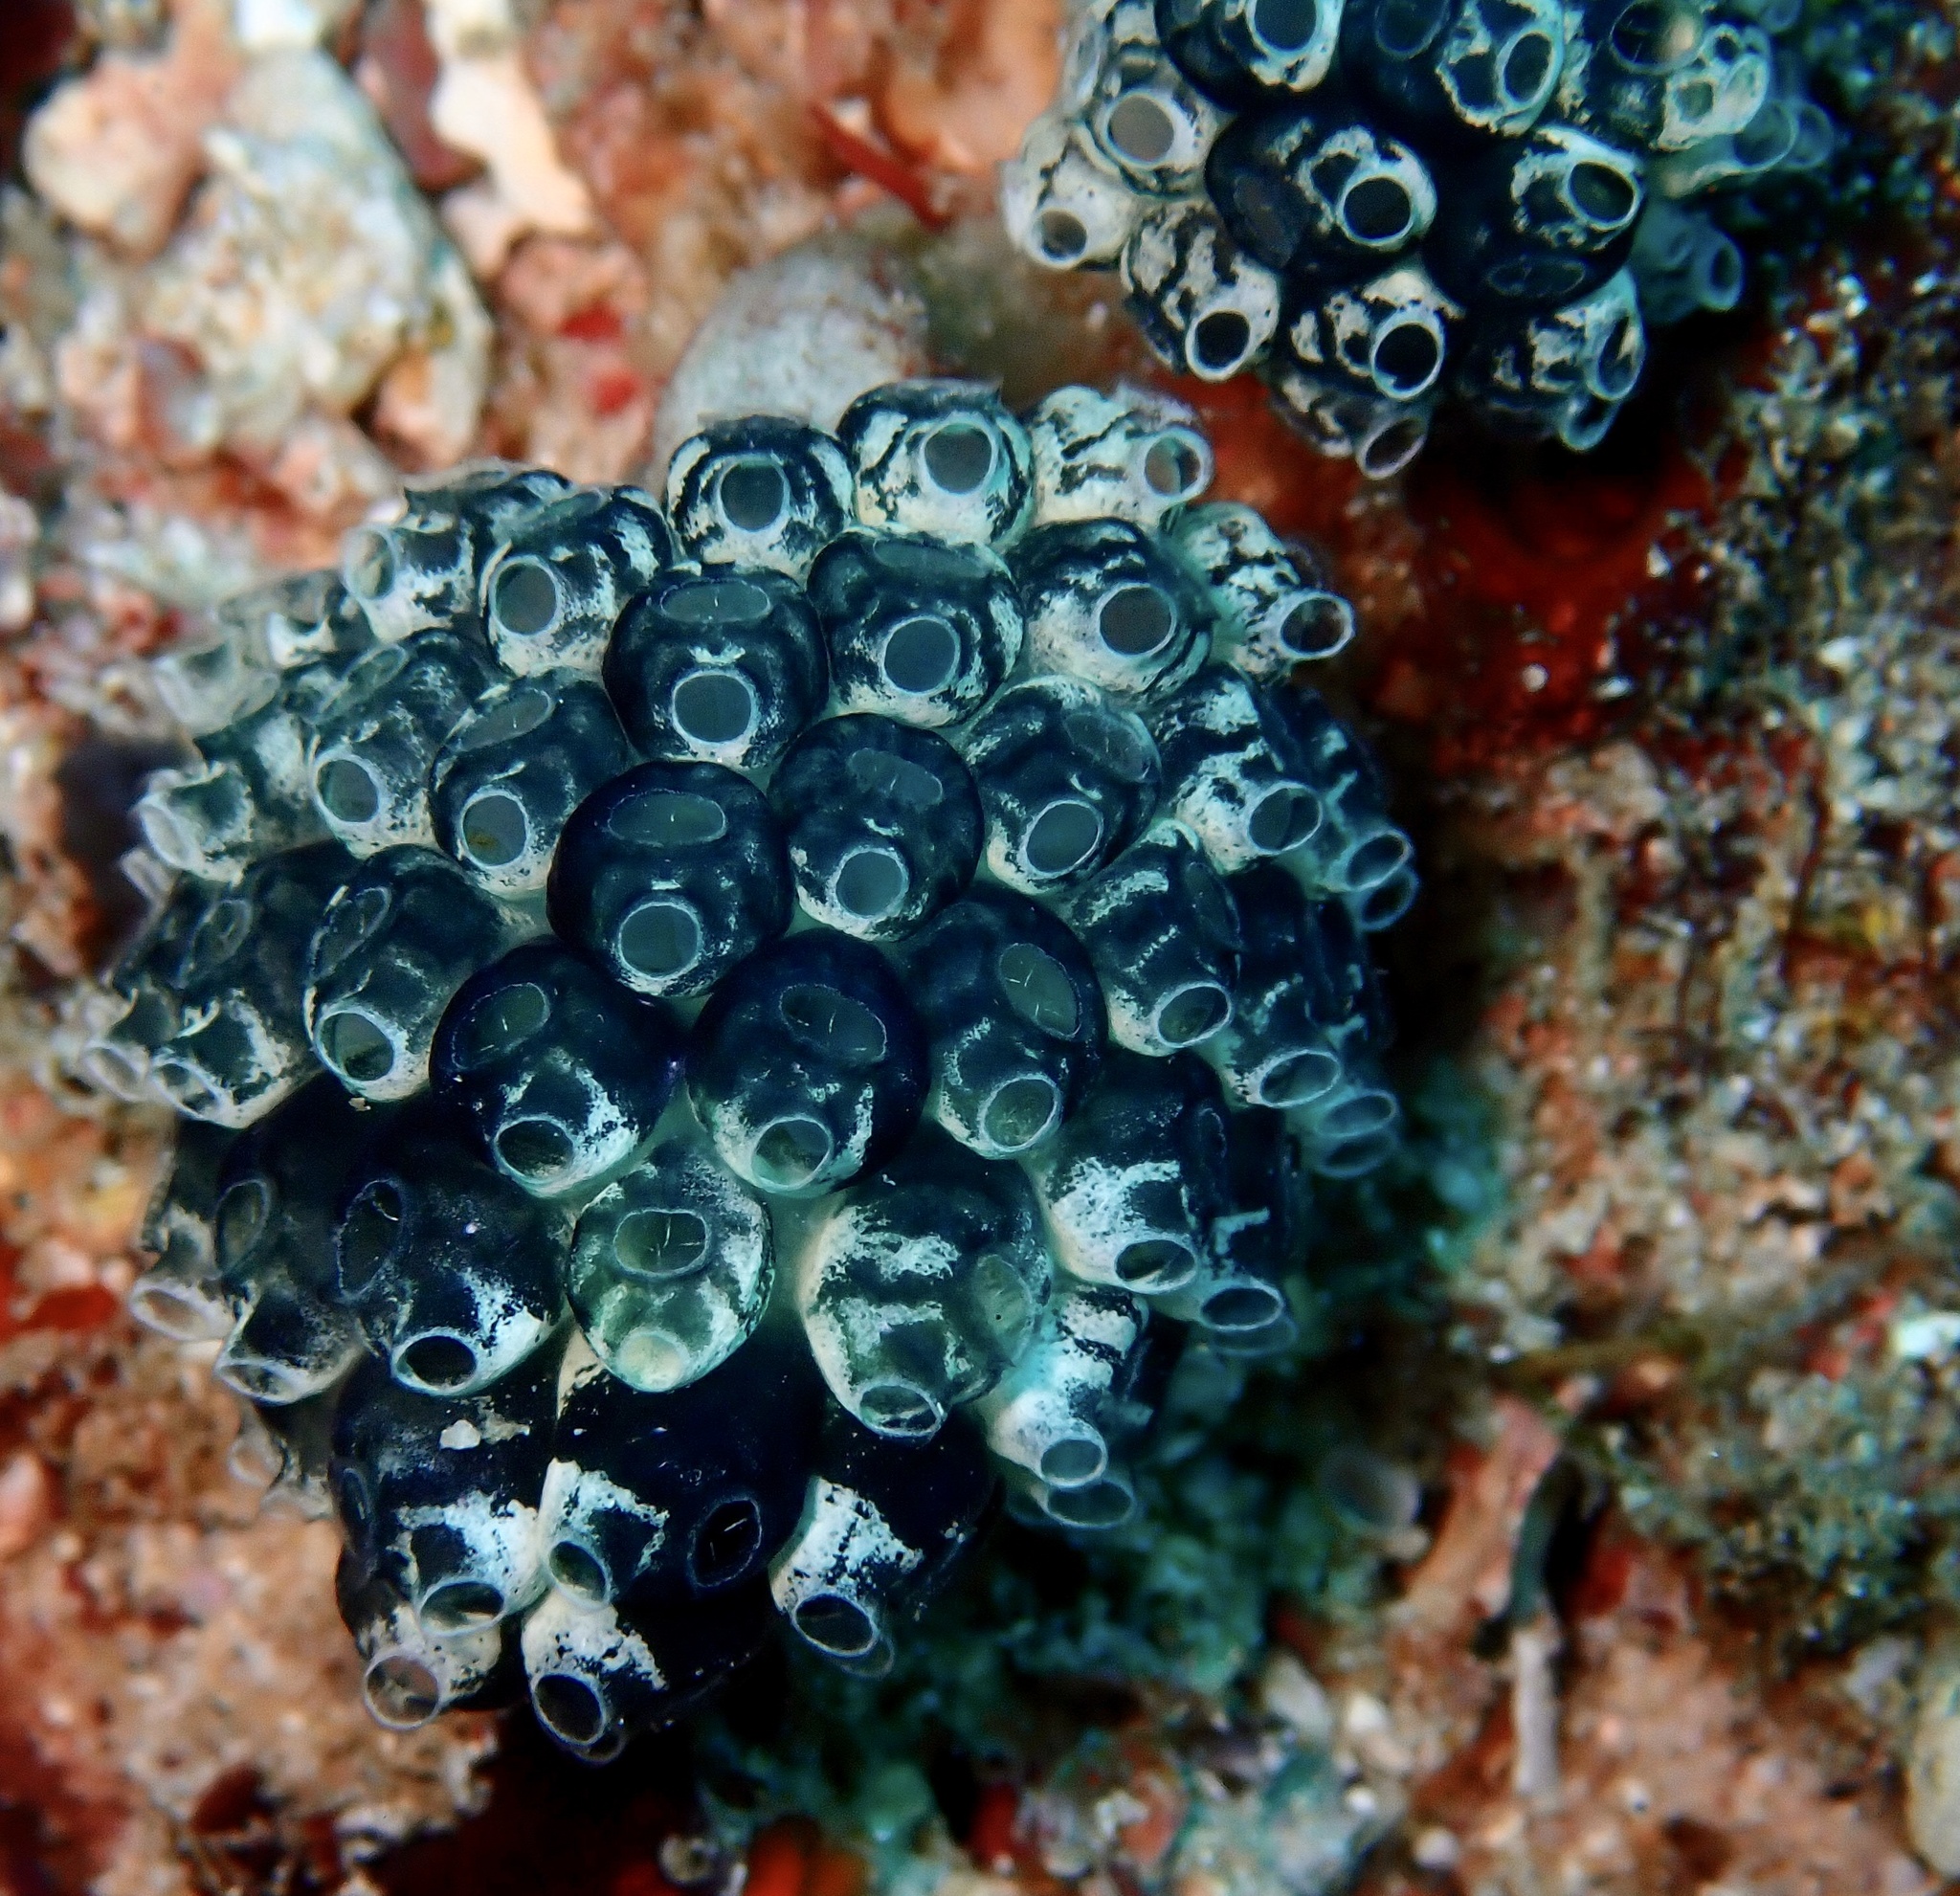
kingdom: Animalia
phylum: Chordata
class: Ascidiacea
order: Aplousobranchia
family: Clavelinidae
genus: Nephtheis
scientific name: Nephtheis fascicularis
